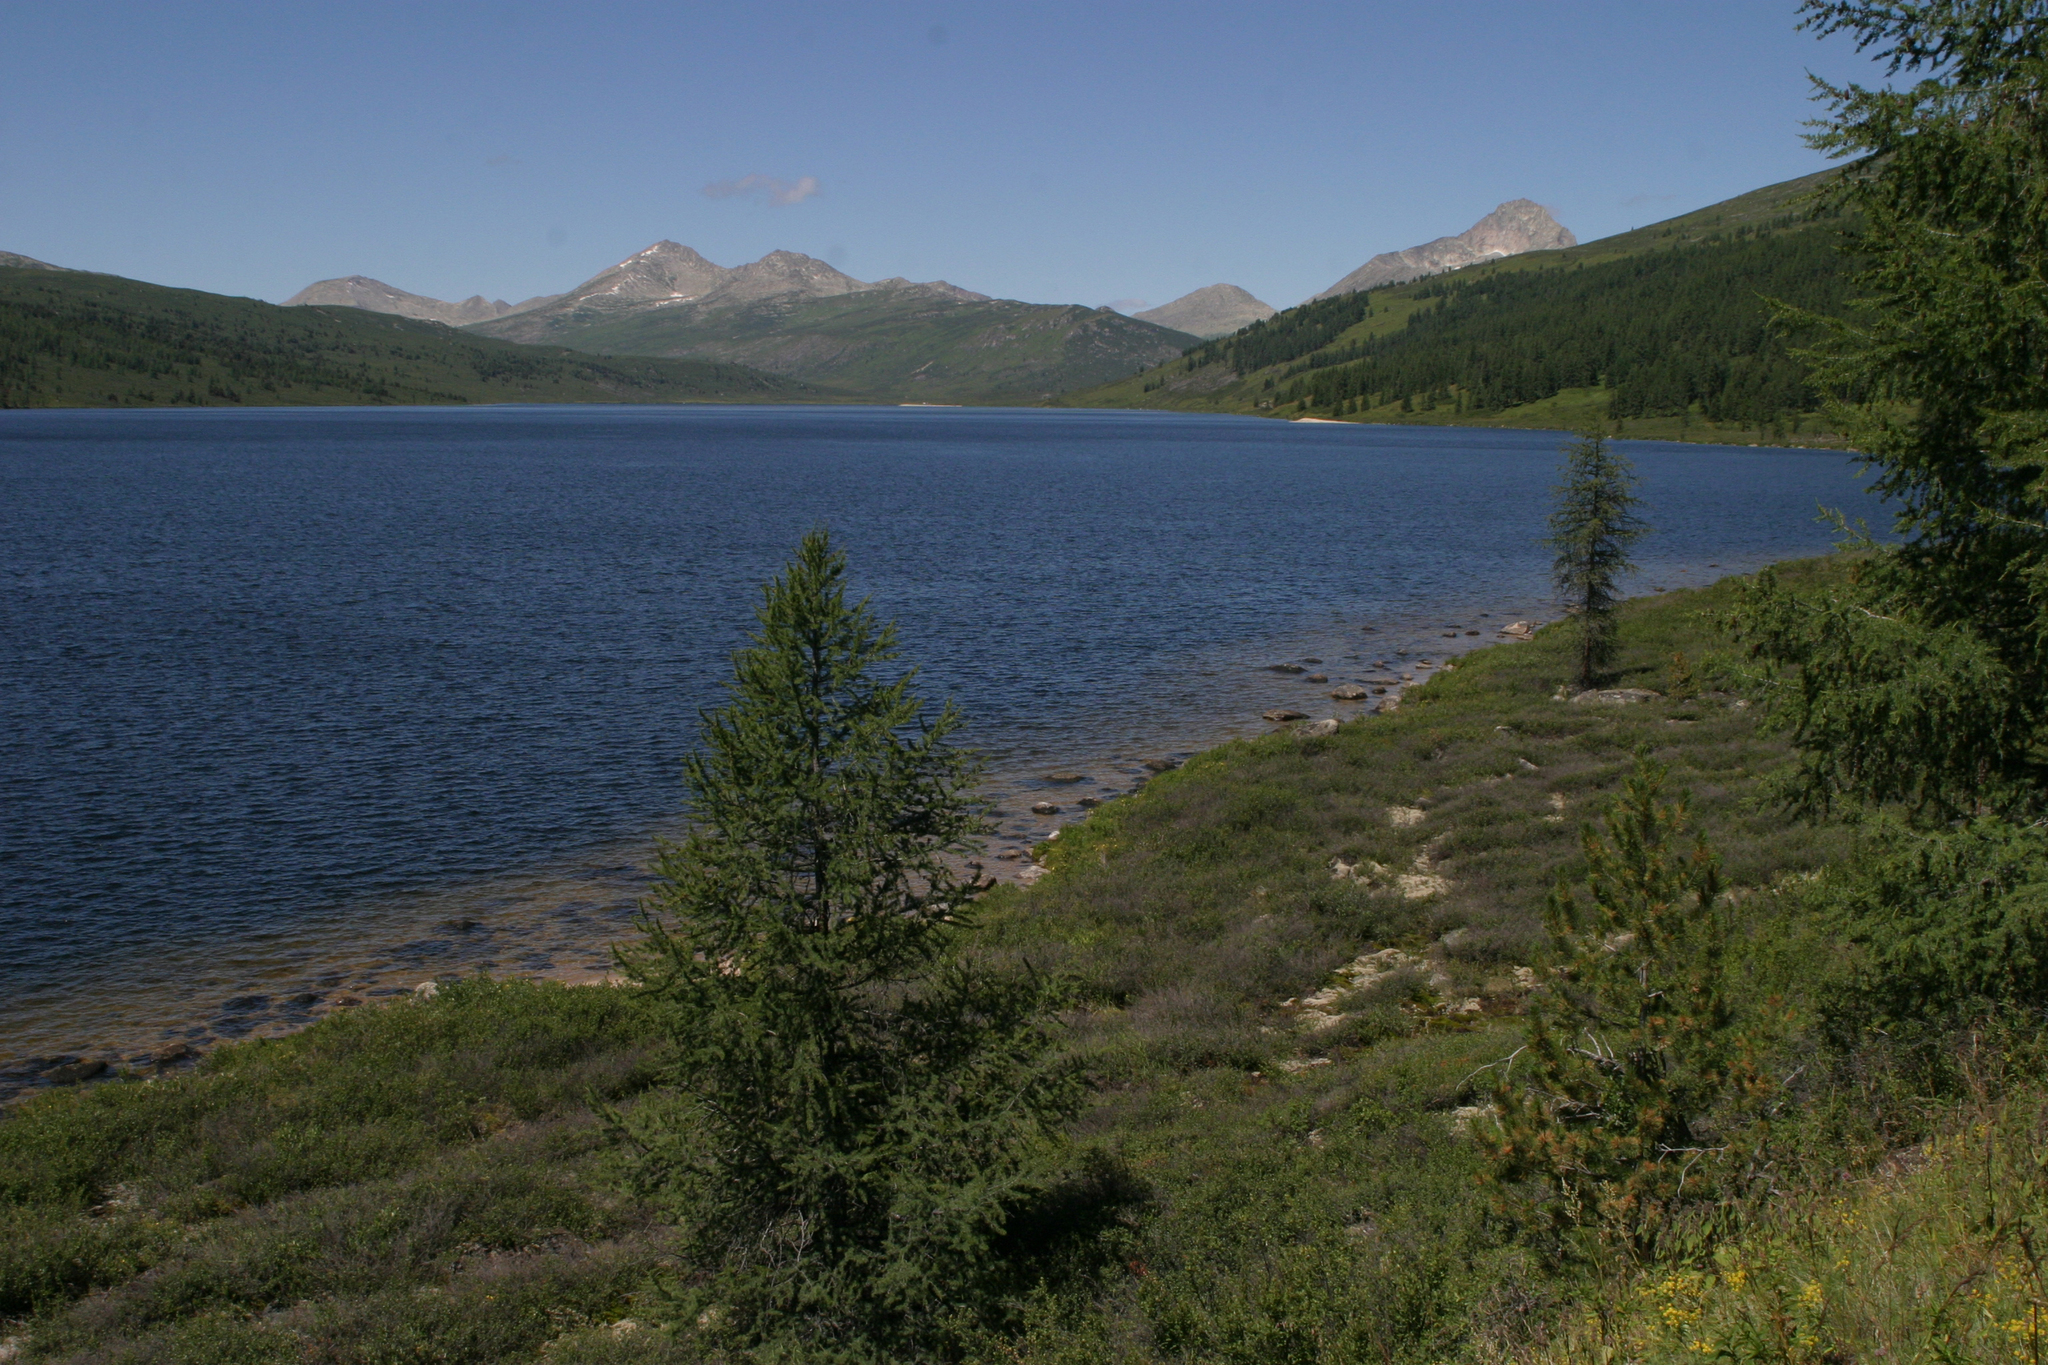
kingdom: Plantae
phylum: Tracheophyta
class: Pinopsida
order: Pinales
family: Pinaceae
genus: Larix
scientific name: Larix sibirica
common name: Siberian larch
